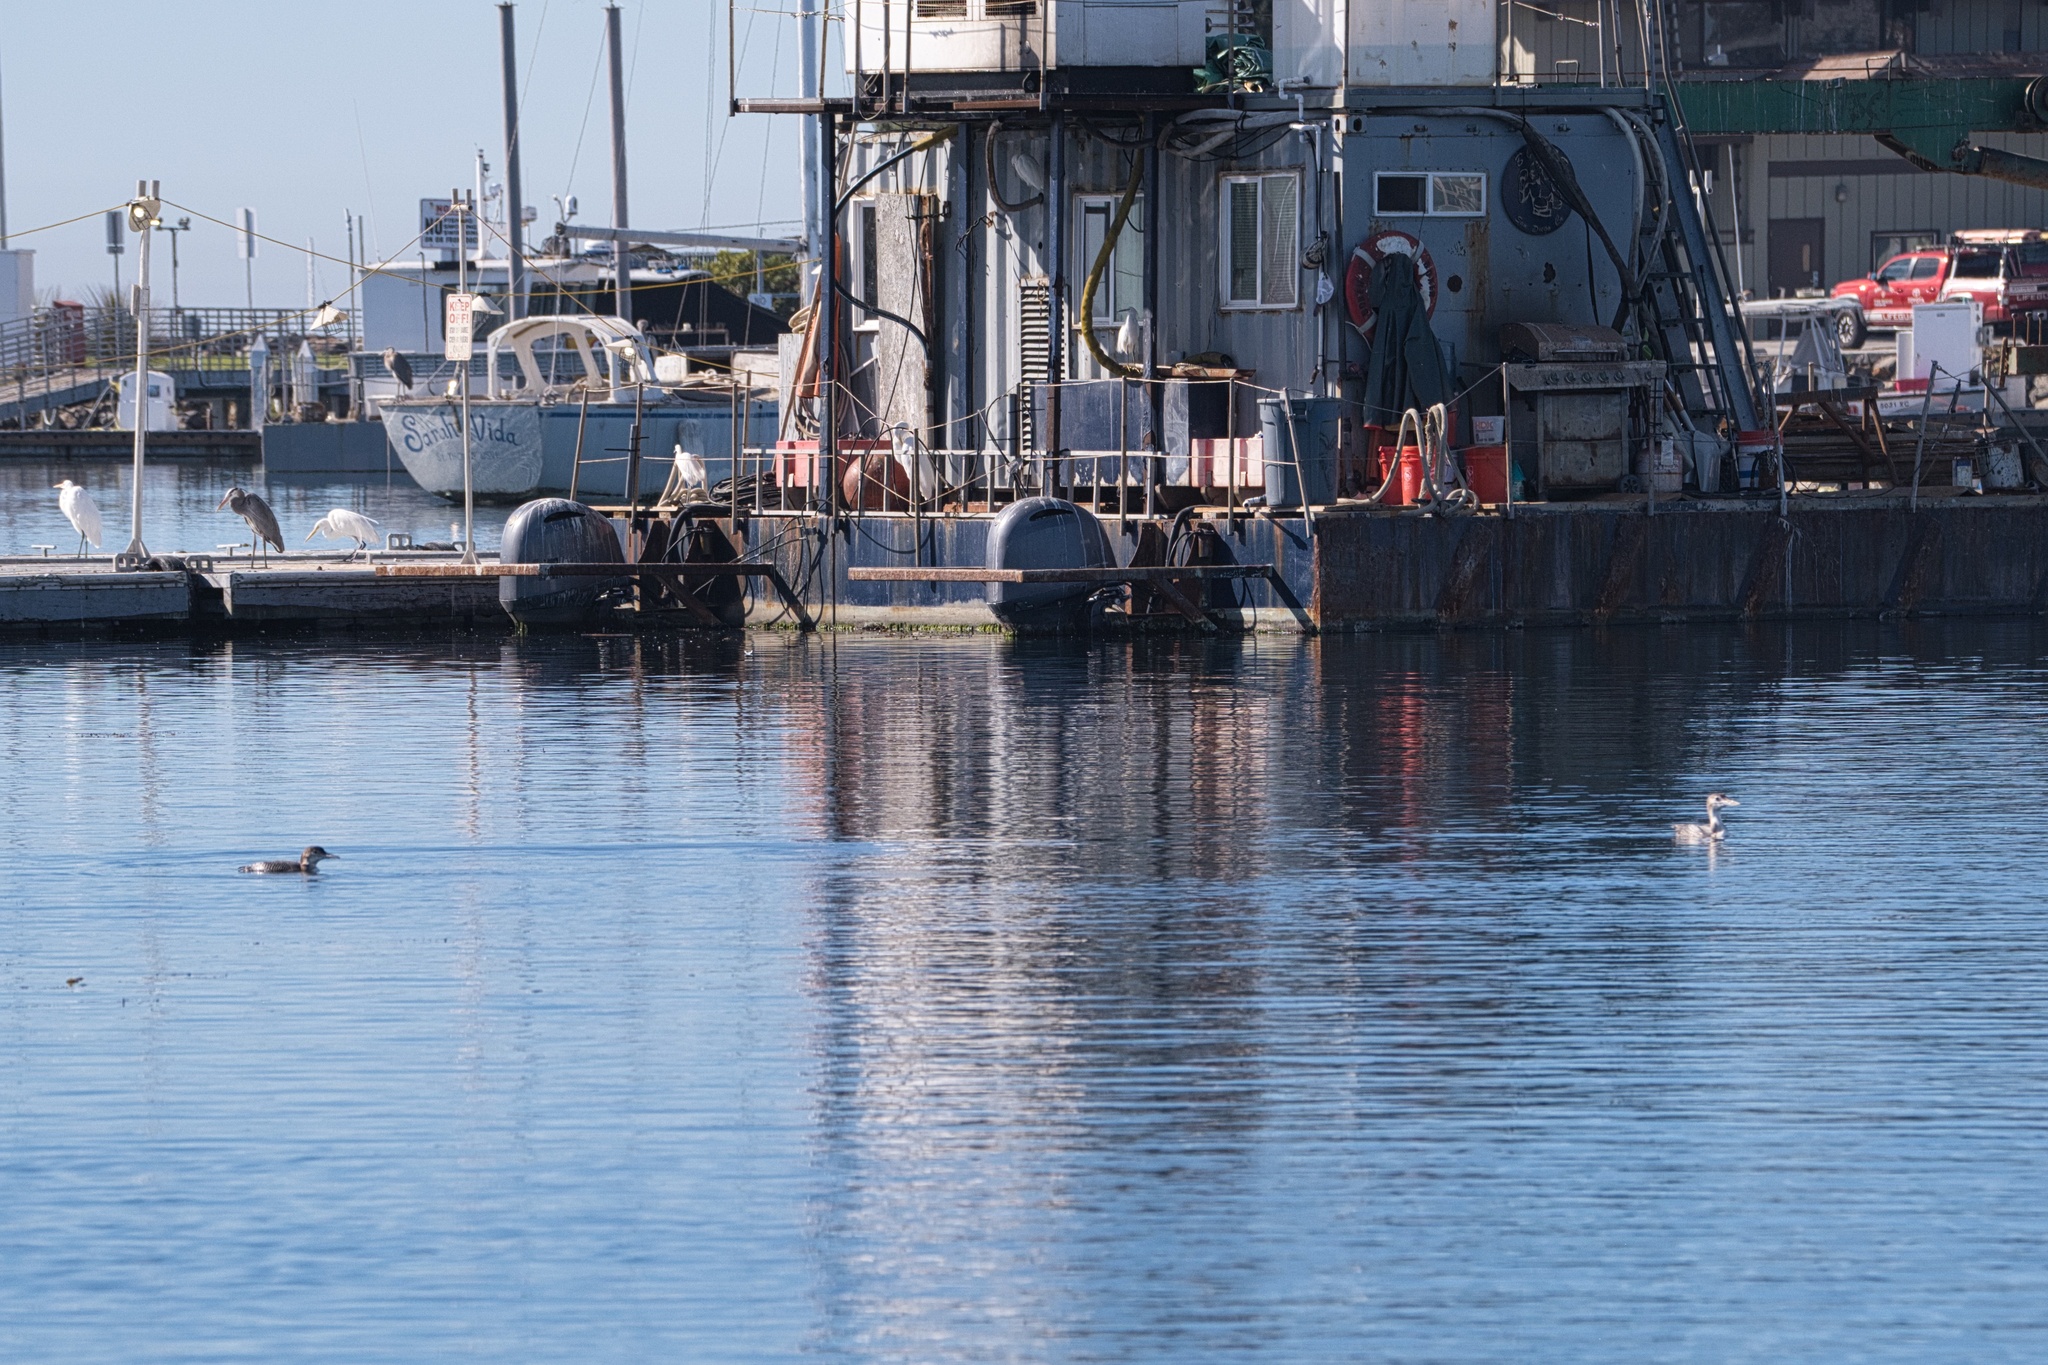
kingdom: Animalia
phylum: Chordata
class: Aves
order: Gaviiformes
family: Gaviidae
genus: Gavia
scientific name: Gavia immer
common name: Common loon
